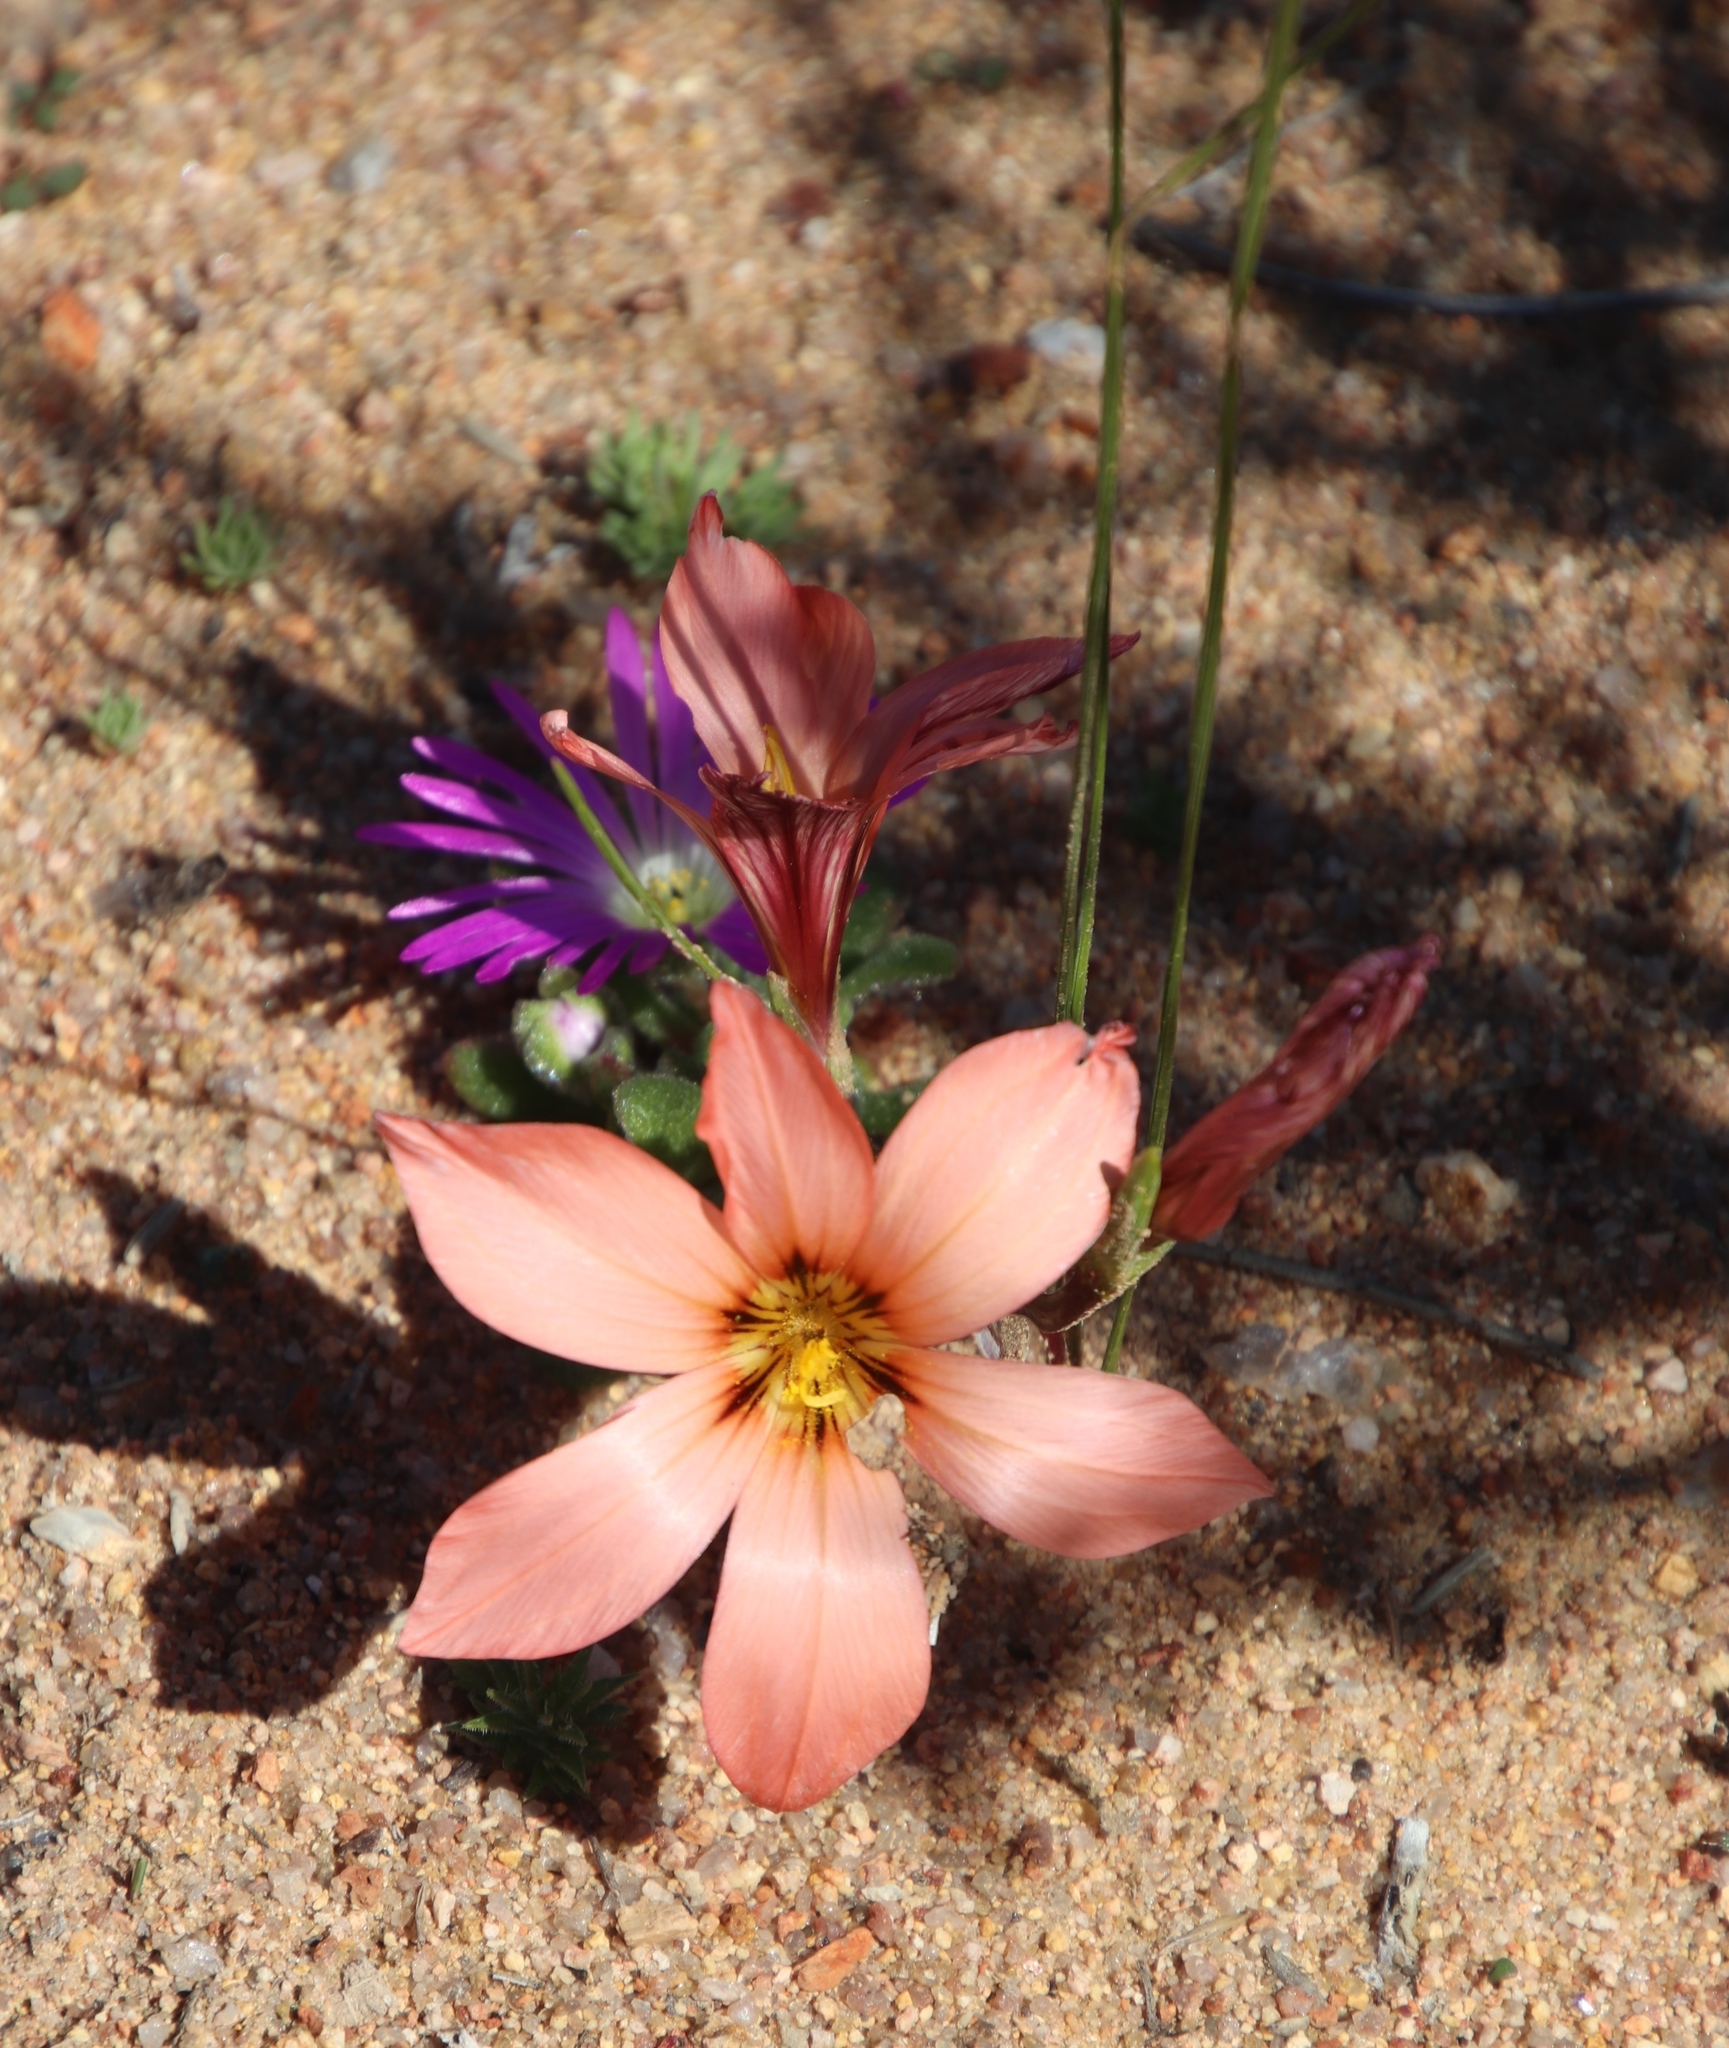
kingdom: Plantae
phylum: Tracheophyta
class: Liliopsida
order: Asparagales
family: Iridaceae
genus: Romulea
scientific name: Romulea namaquensis
